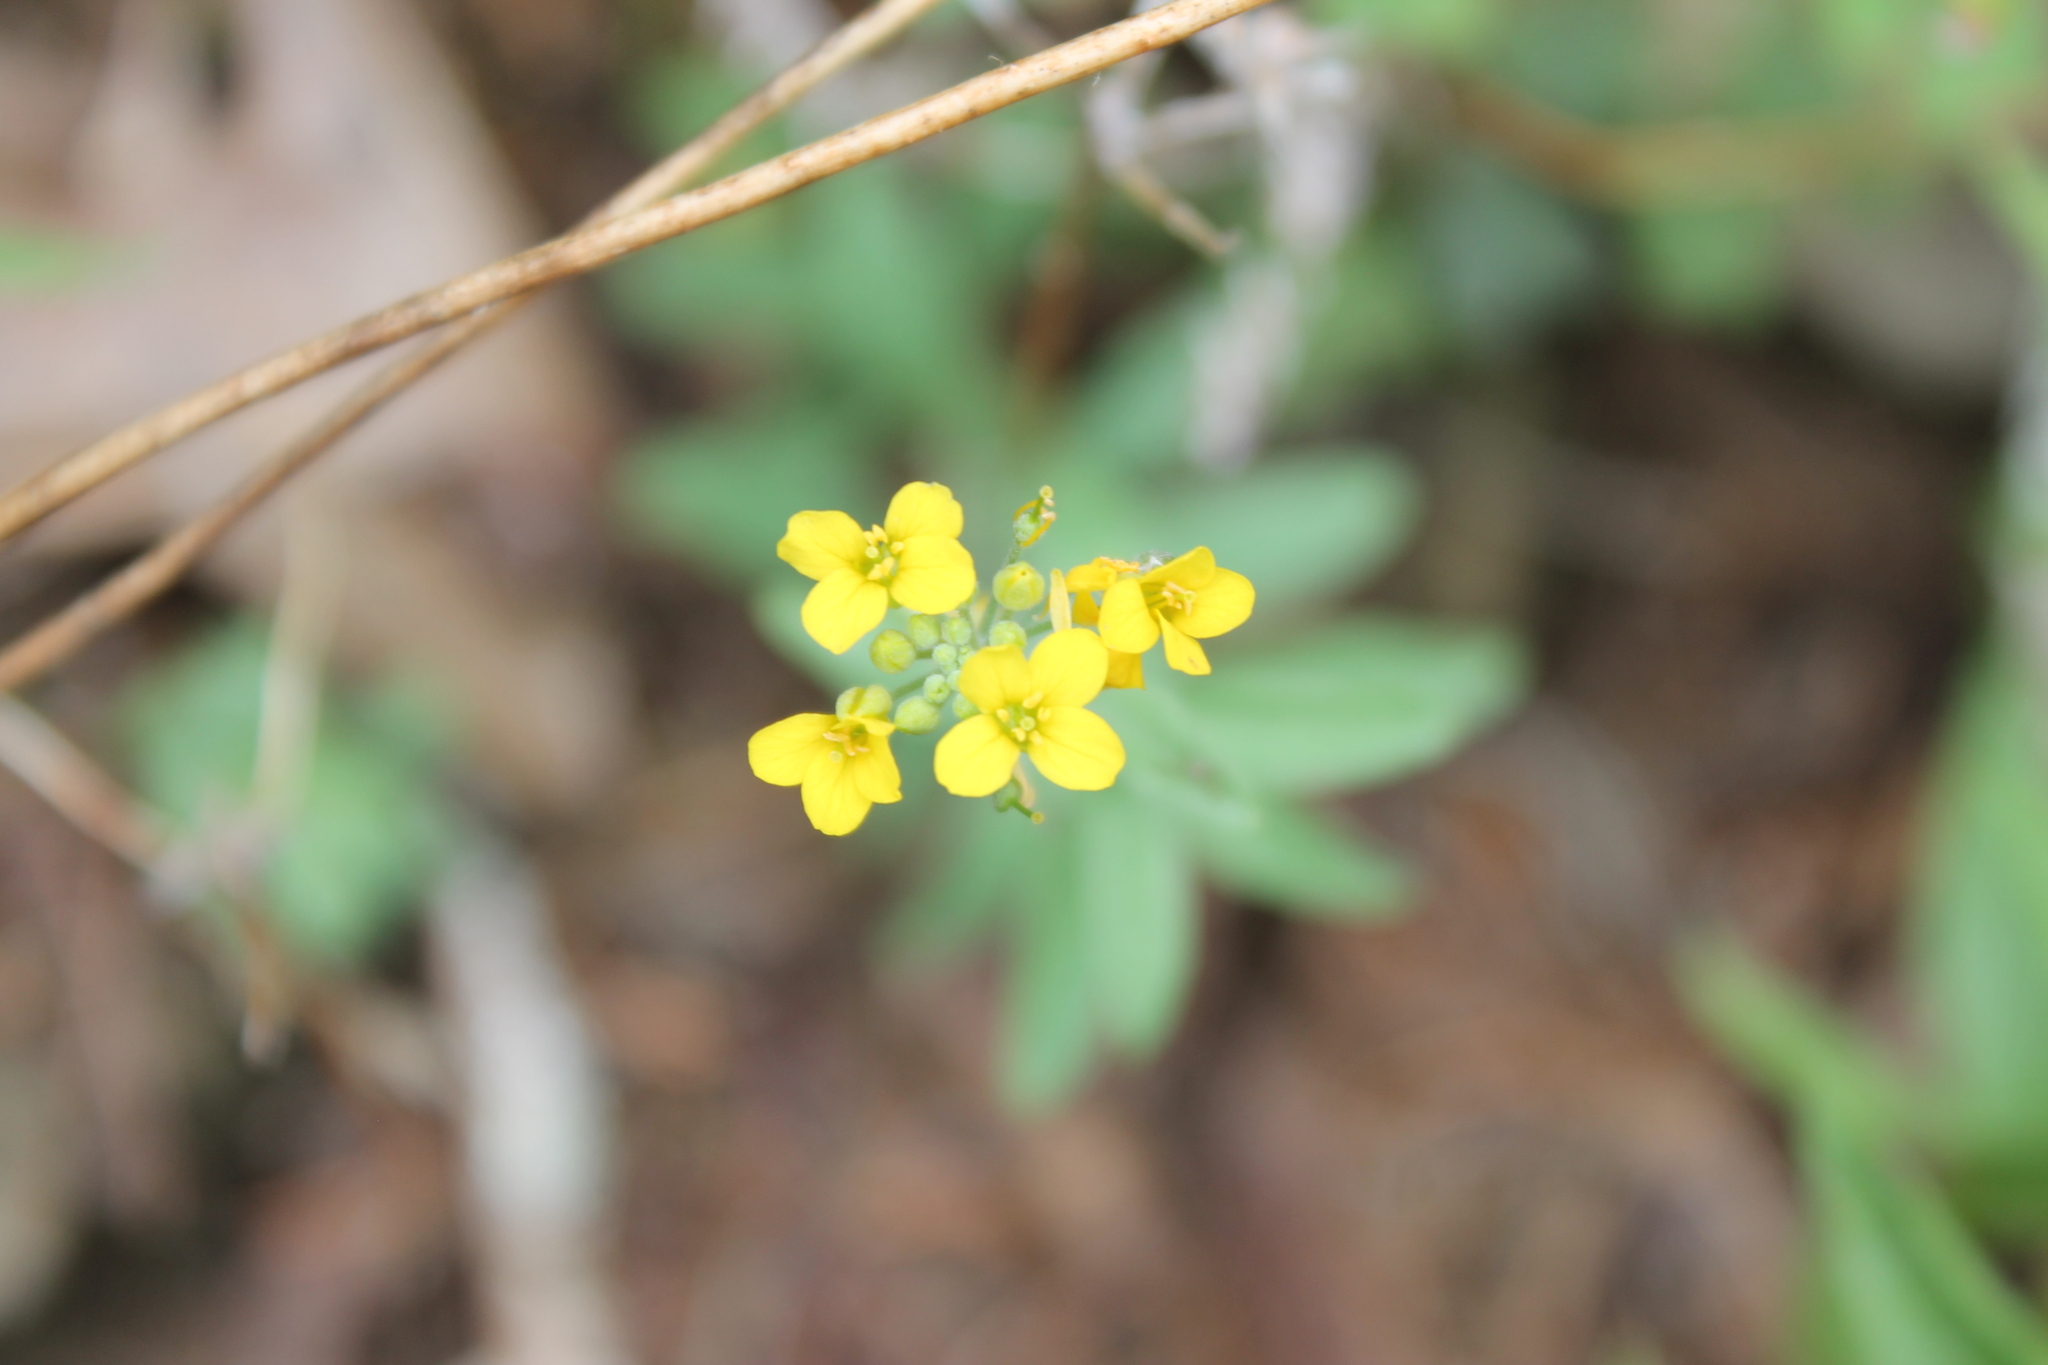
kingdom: Plantae
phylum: Tracheophyta
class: Magnoliopsida
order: Brassicales
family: Brassicaceae
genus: Physaria
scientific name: Physaria globosa
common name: Globe bladderpod
